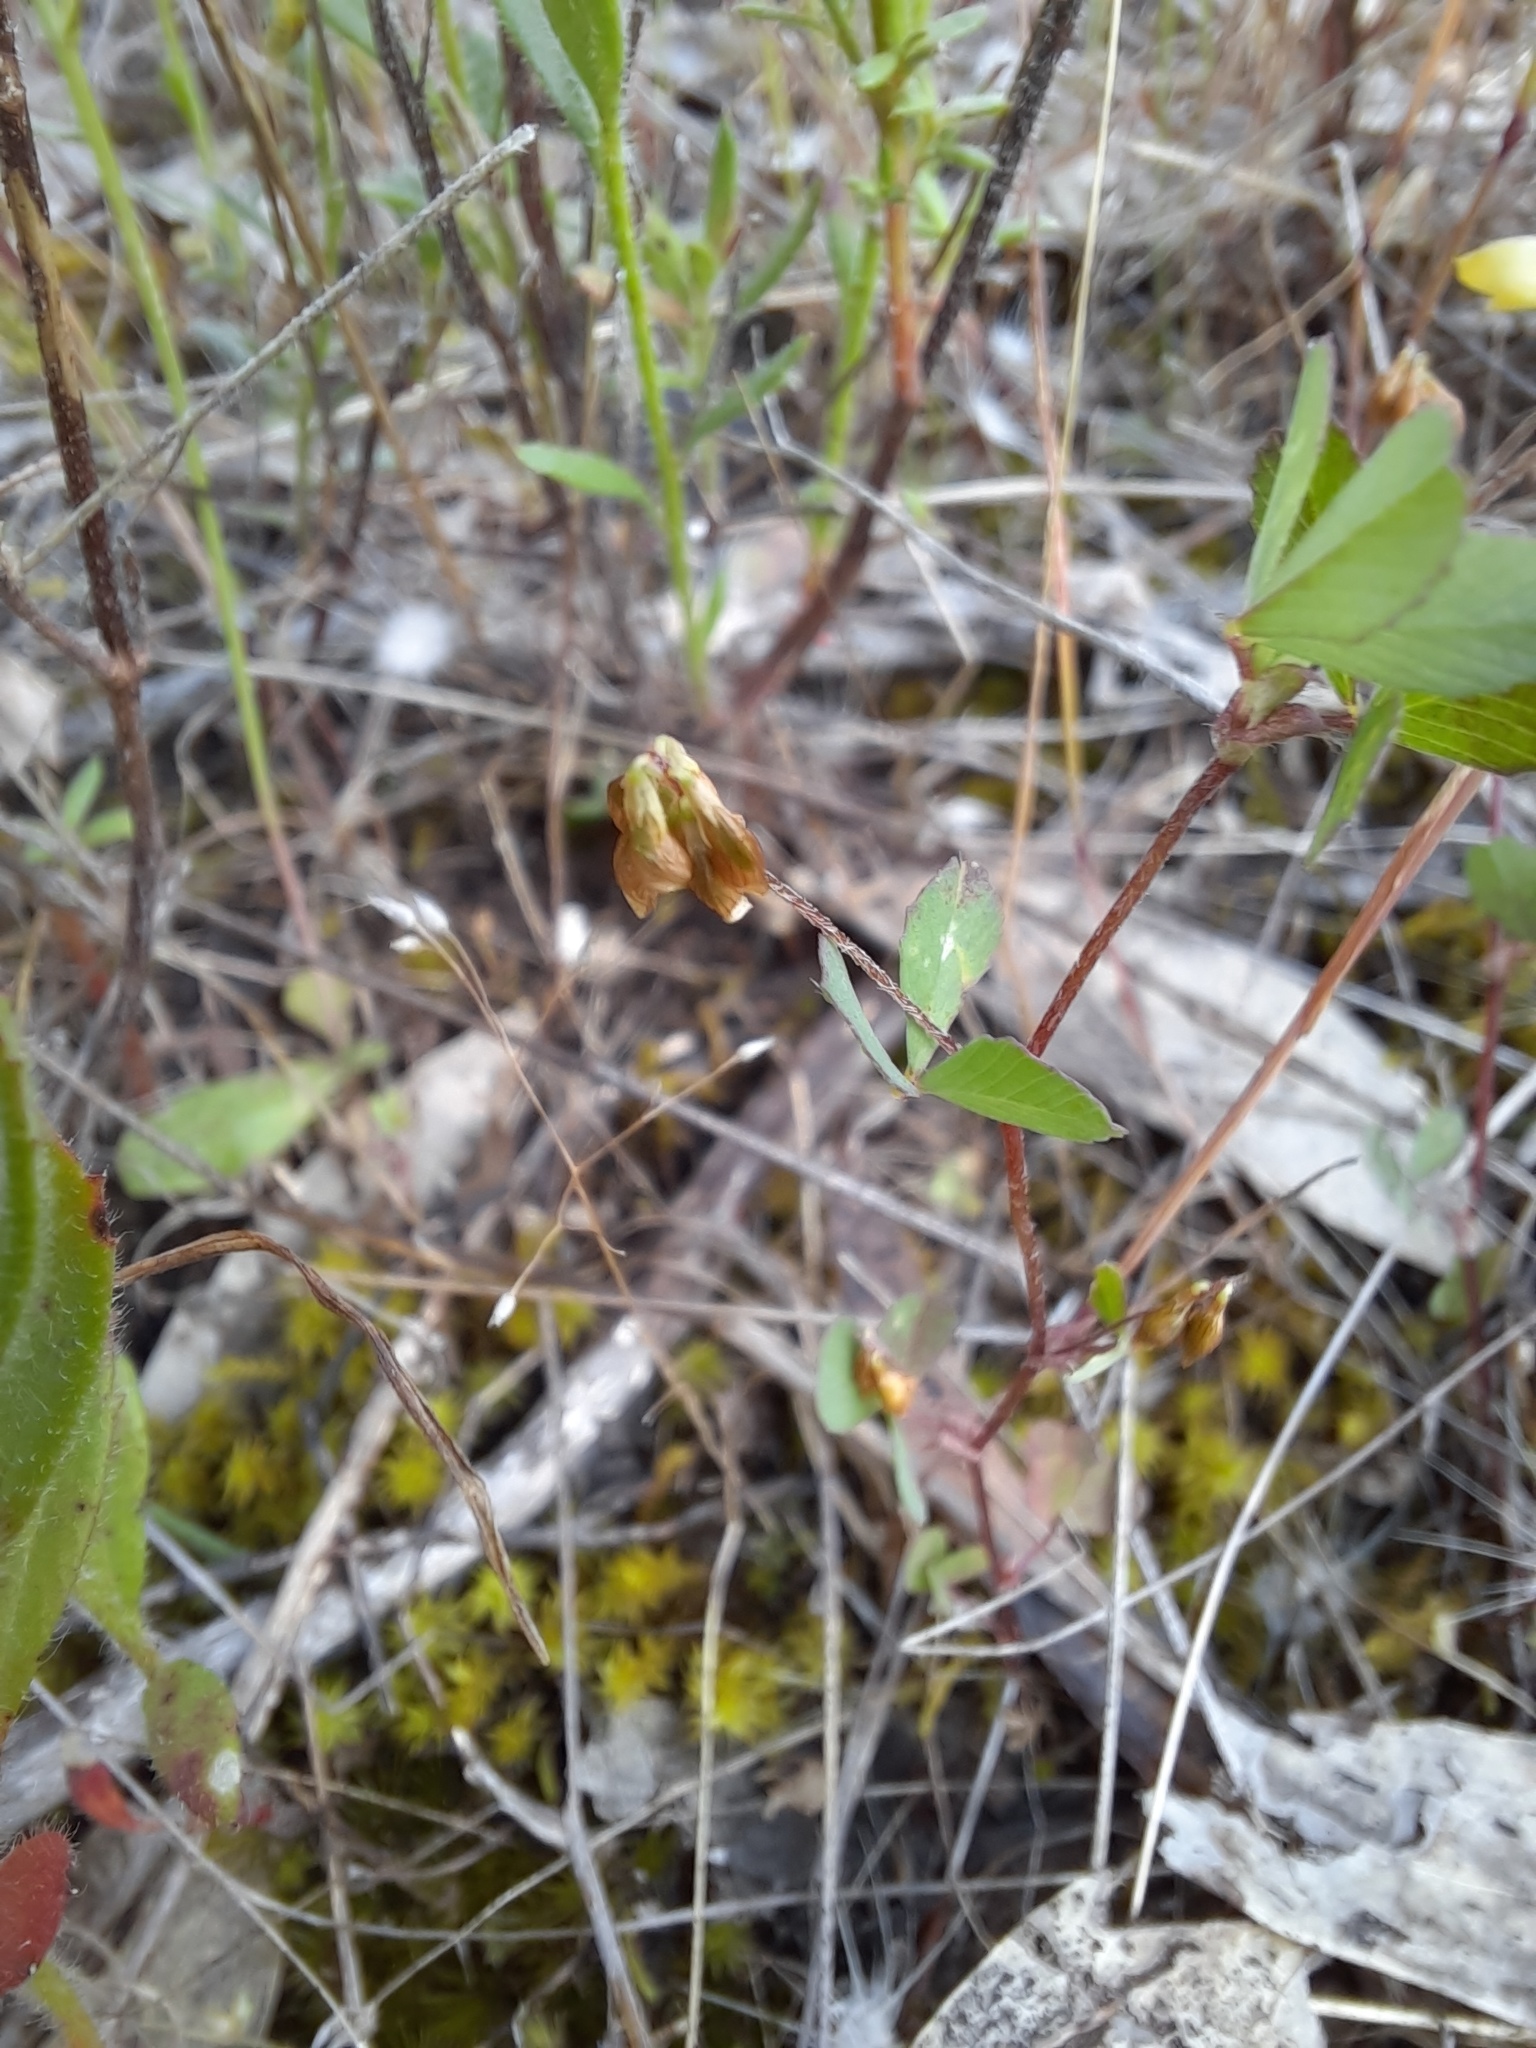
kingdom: Plantae
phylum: Tracheophyta
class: Magnoliopsida
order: Fabales
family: Fabaceae
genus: Trifolium
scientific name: Trifolium dubium
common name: Suckling clover
